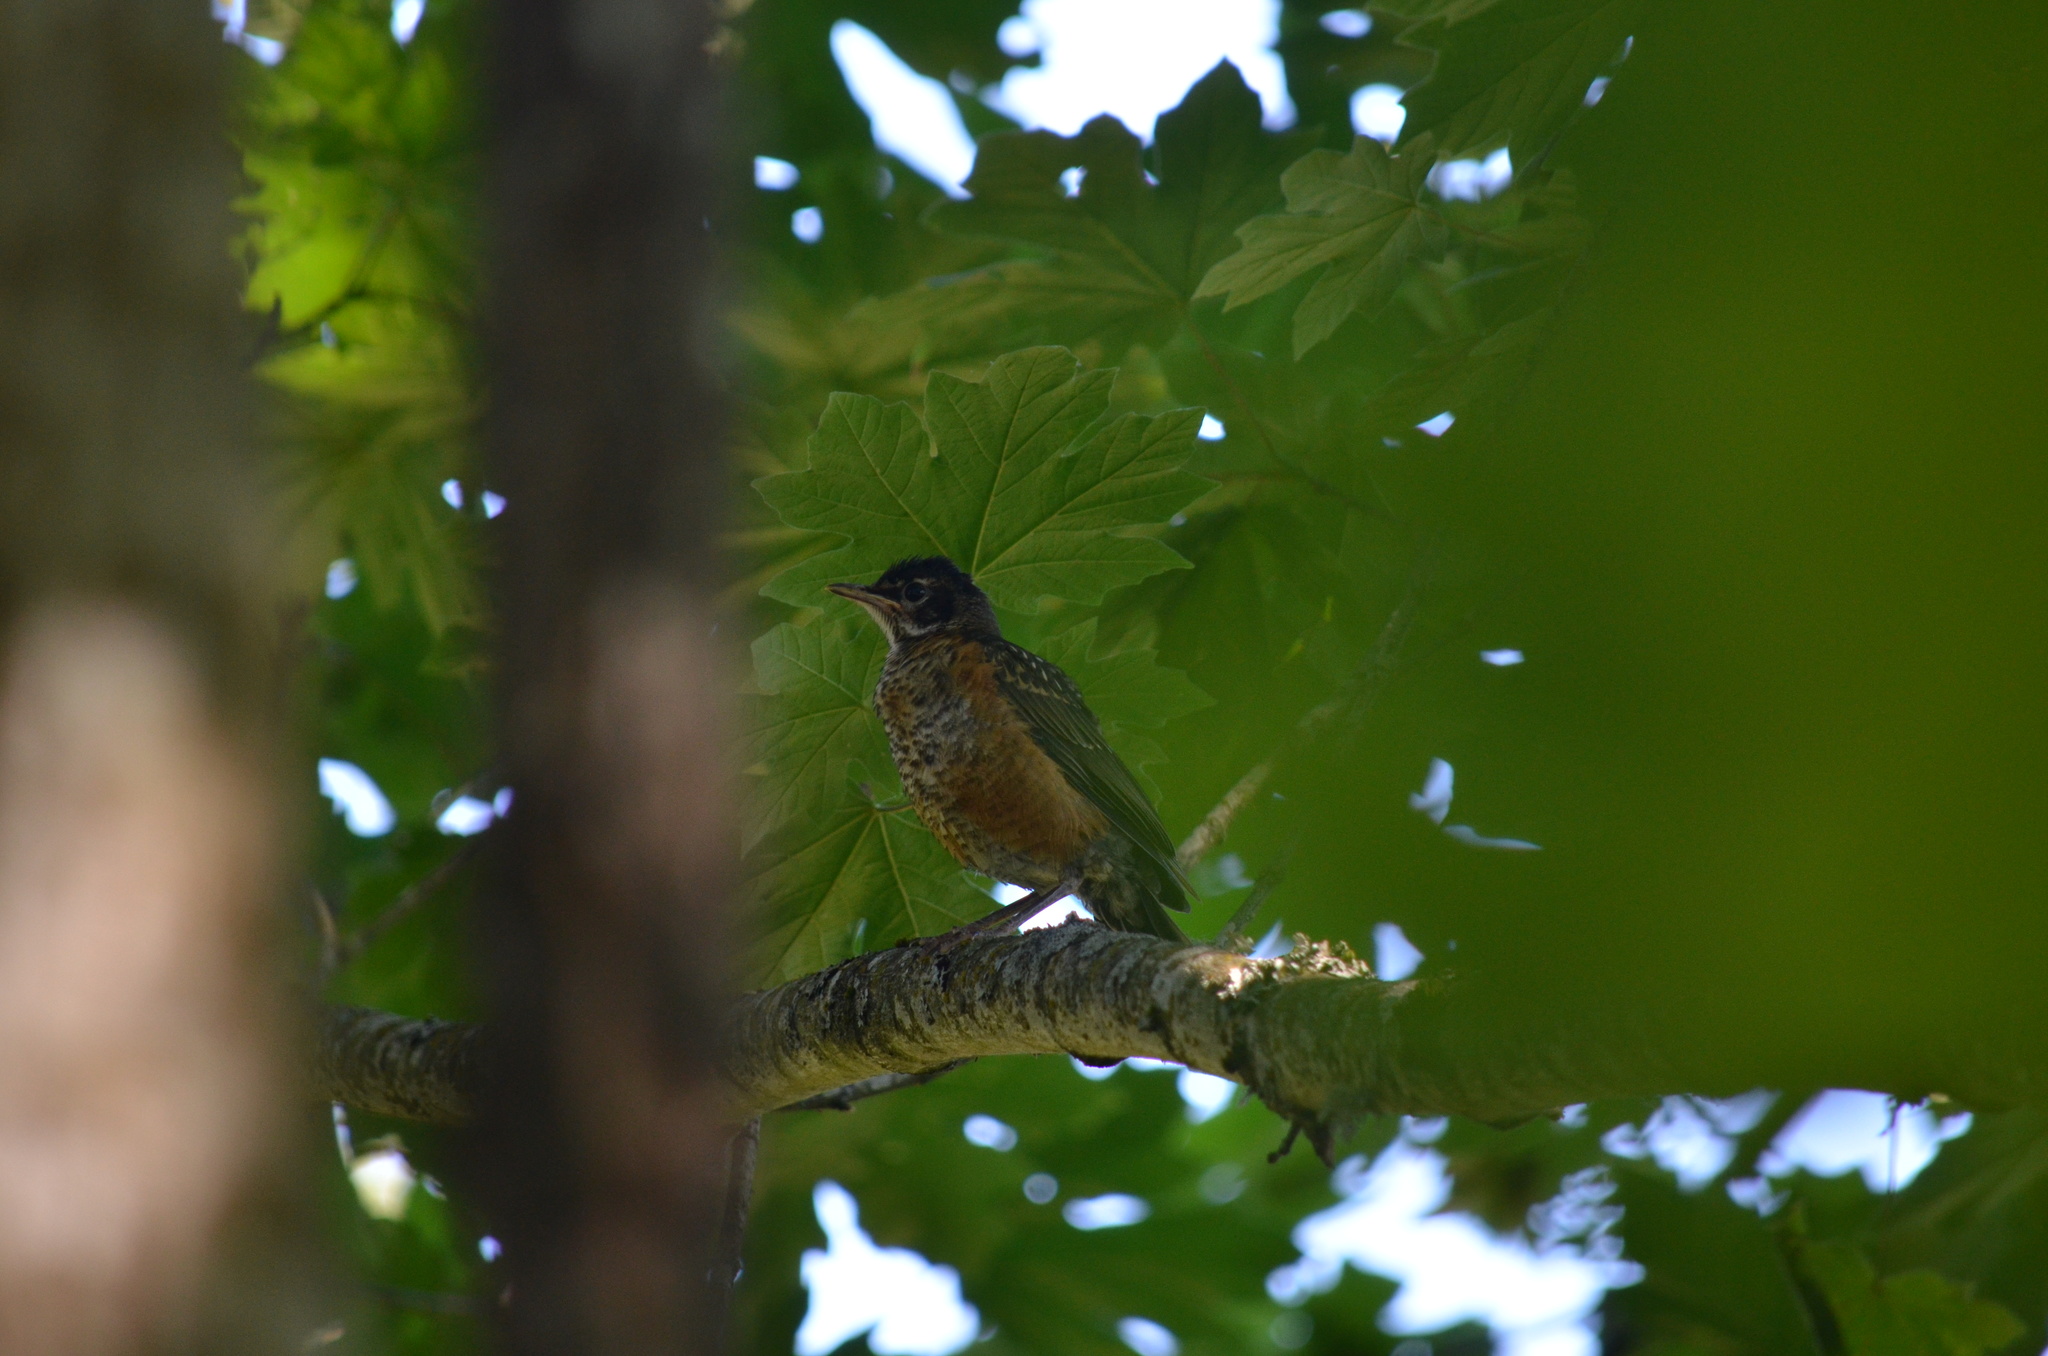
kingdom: Animalia
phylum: Chordata
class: Aves
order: Passeriformes
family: Turdidae
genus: Turdus
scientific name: Turdus migratorius
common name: American robin
